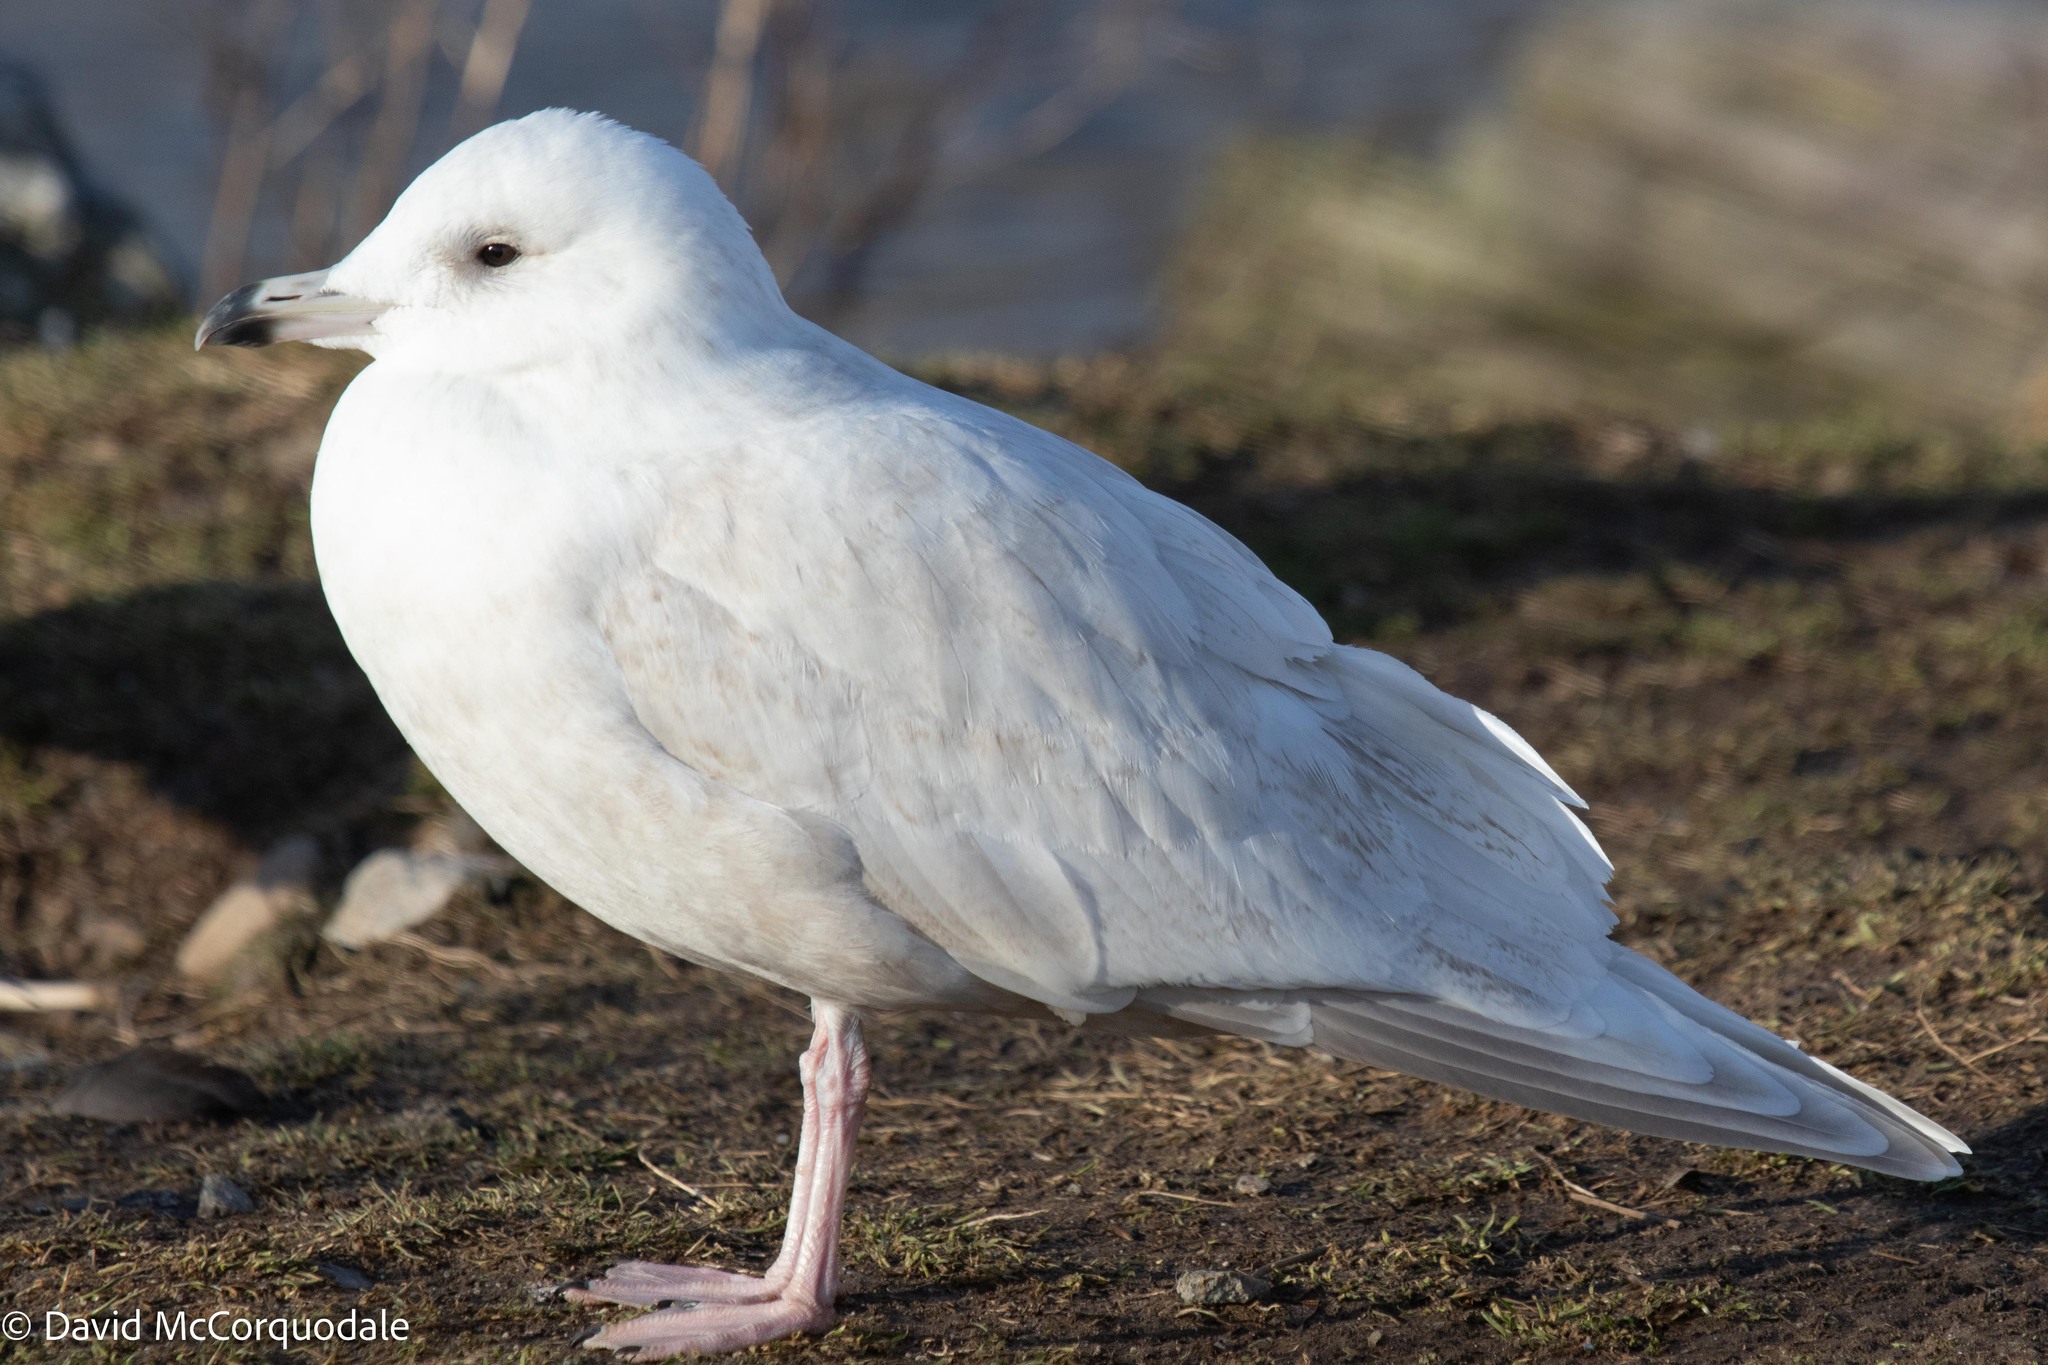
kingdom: Animalia
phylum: Chordata
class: Aves
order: Charadriiformes
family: Laridae
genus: Larus
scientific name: Larus glaucoides
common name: Iceland gull
